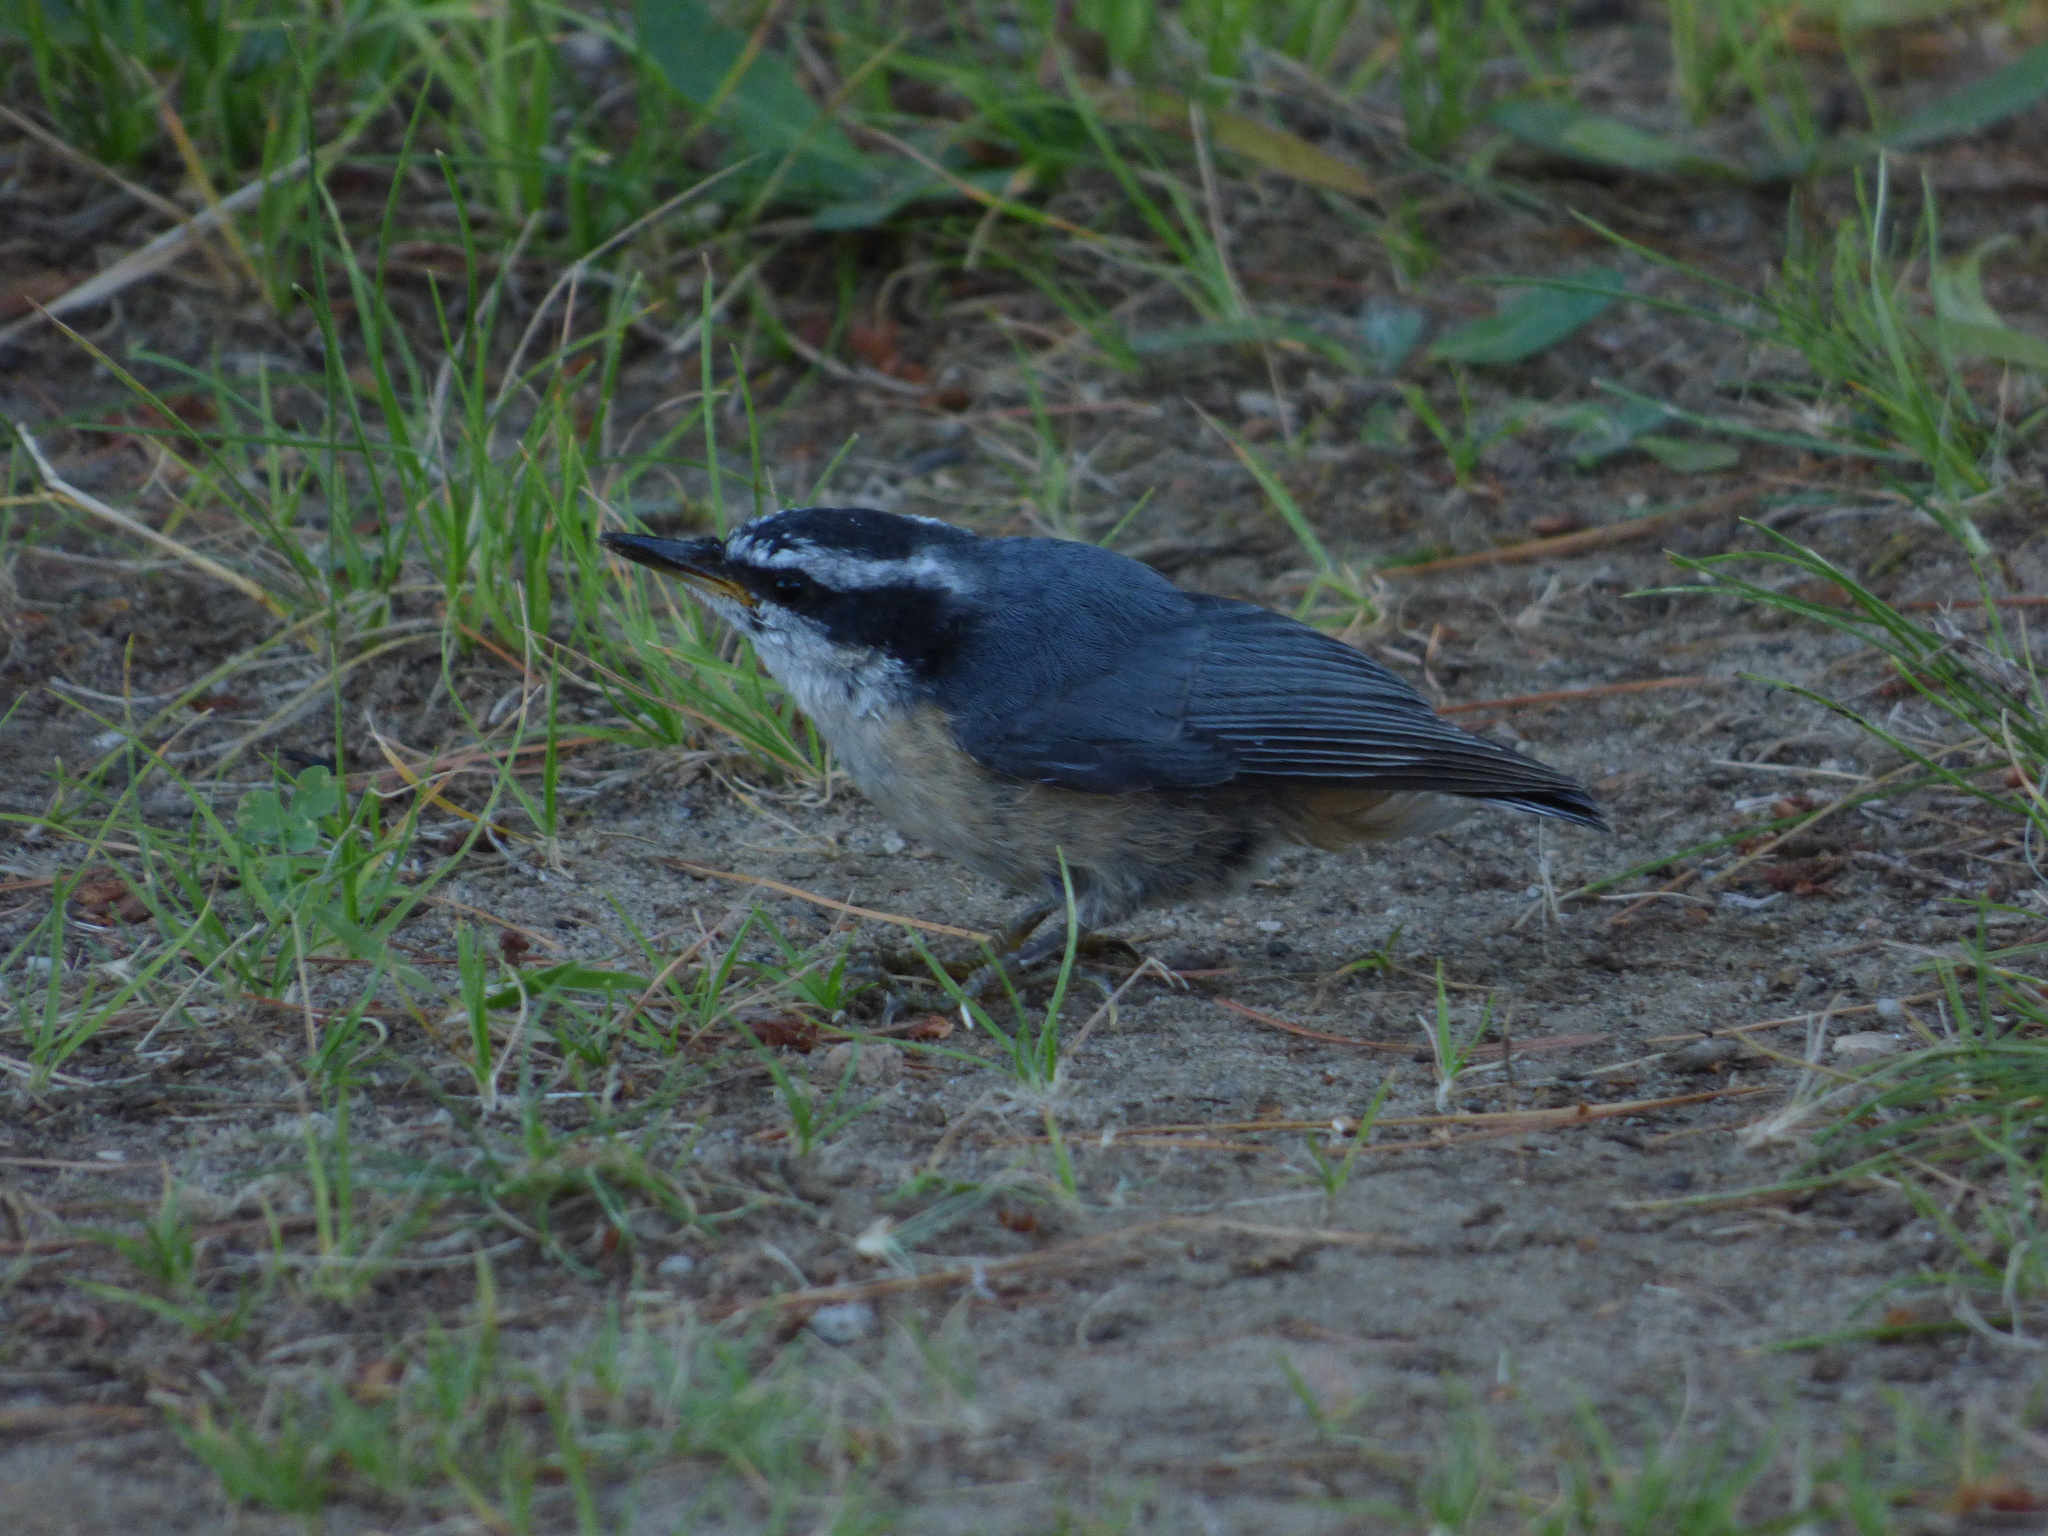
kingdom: Animalia
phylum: Chordata
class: Aves
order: Passeriformes
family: Sittidae
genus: Sitta
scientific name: Sitta canadensis
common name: Red-breasted nuthatch
